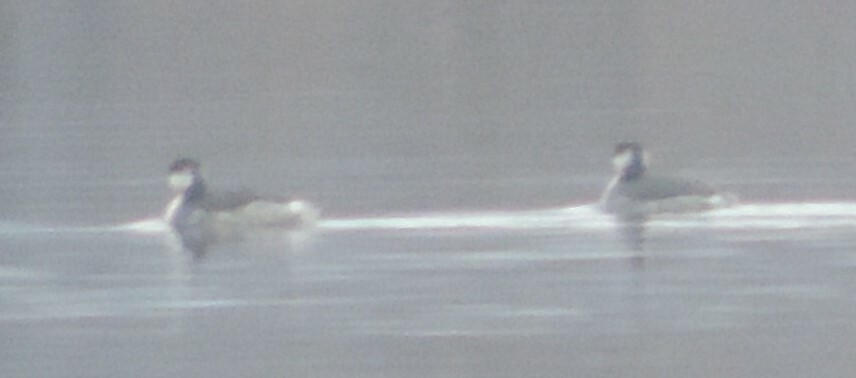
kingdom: Animalia
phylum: Chordata
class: Aves
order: Podicipediformes
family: Podicipedidae
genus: Podiceps
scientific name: Podiceps auritus
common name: Horned grebe
